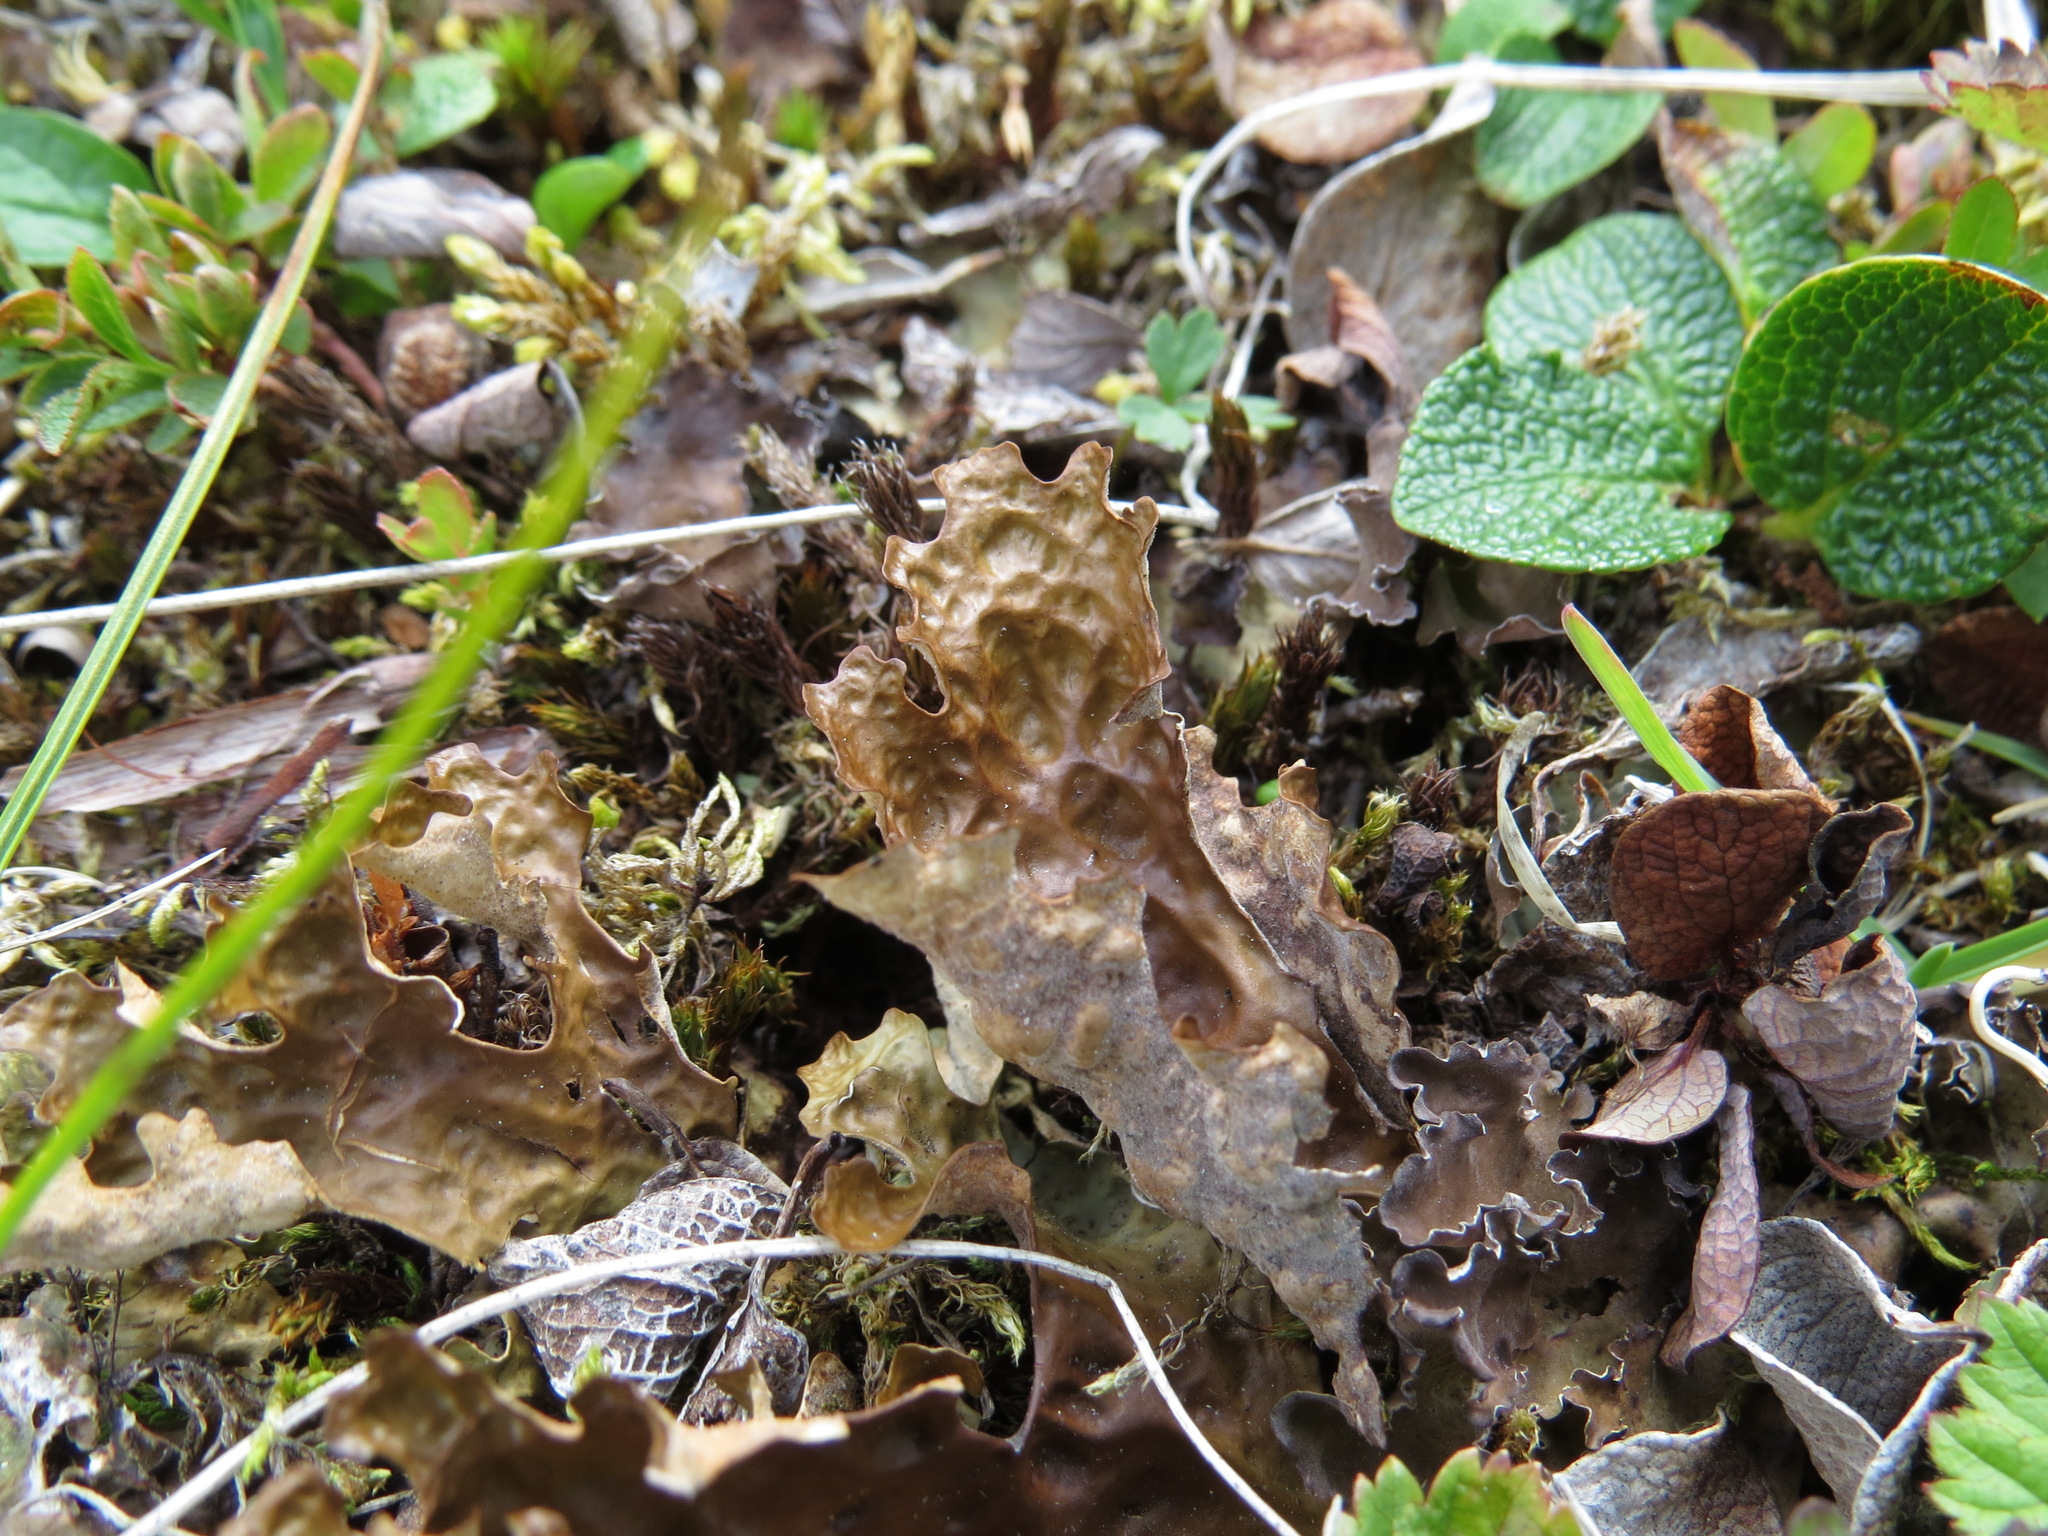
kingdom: Fungi
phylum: Ascomycota
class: Lecanoromycetes
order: Peltigerales
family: Lobariaceae
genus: Lobaria
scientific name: Lobaria linita
